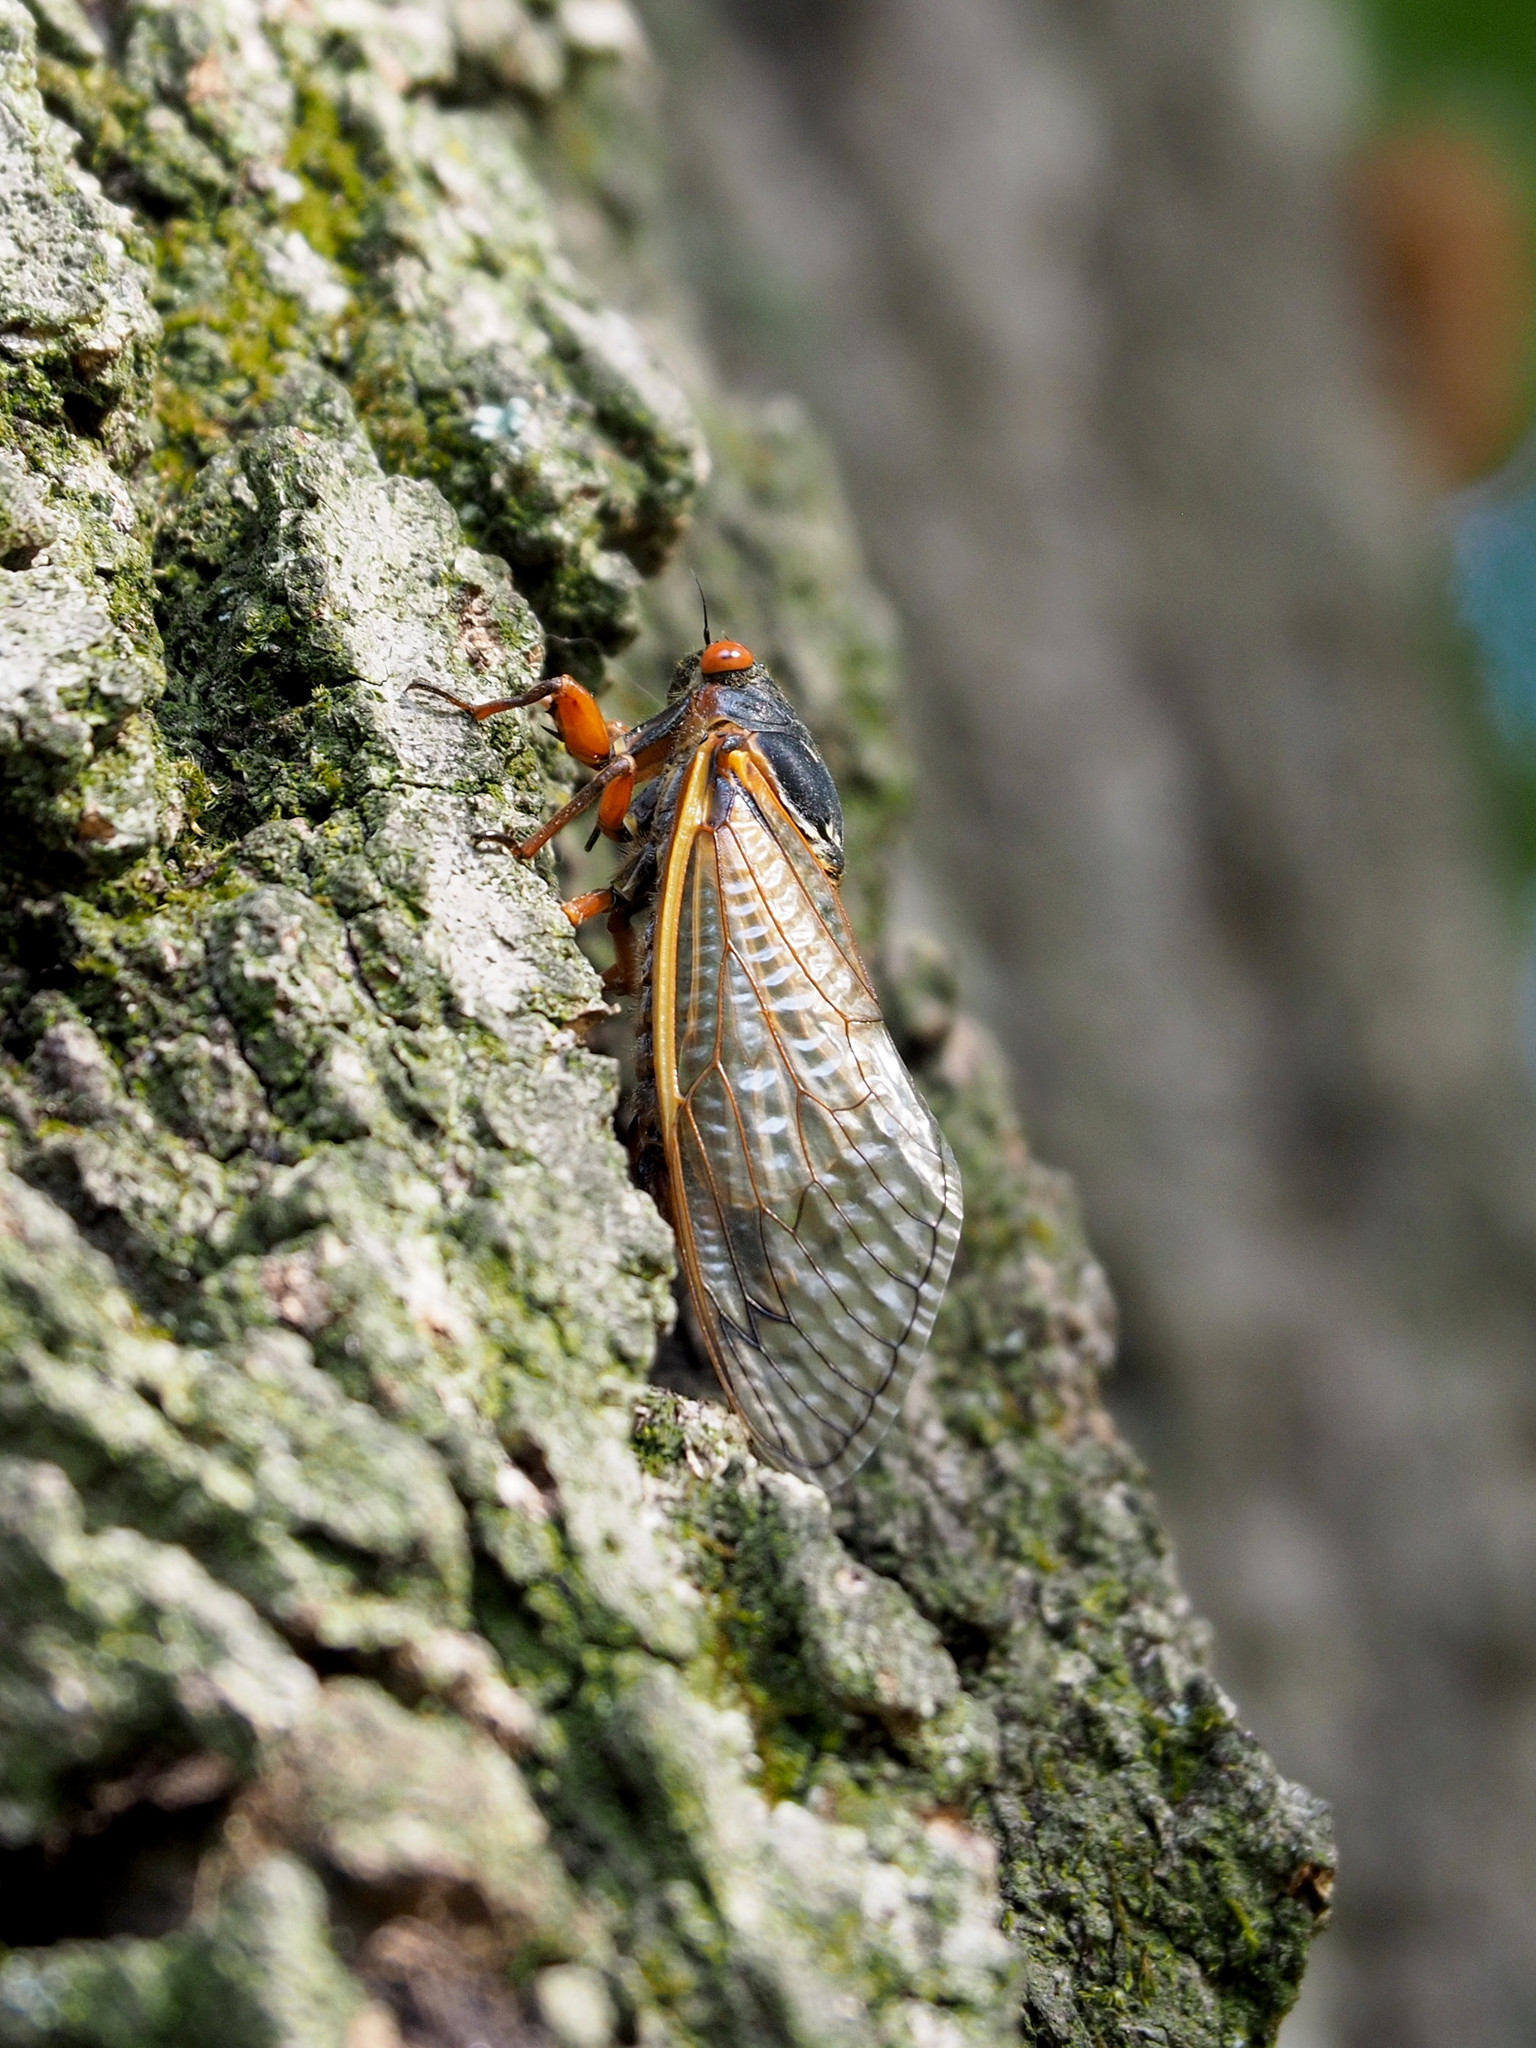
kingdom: Animalia
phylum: Arthropoda
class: Insecta
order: Hemiptera
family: Cicadidae
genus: Magicicada
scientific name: Magicicada septendecim
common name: Periodical cicada
